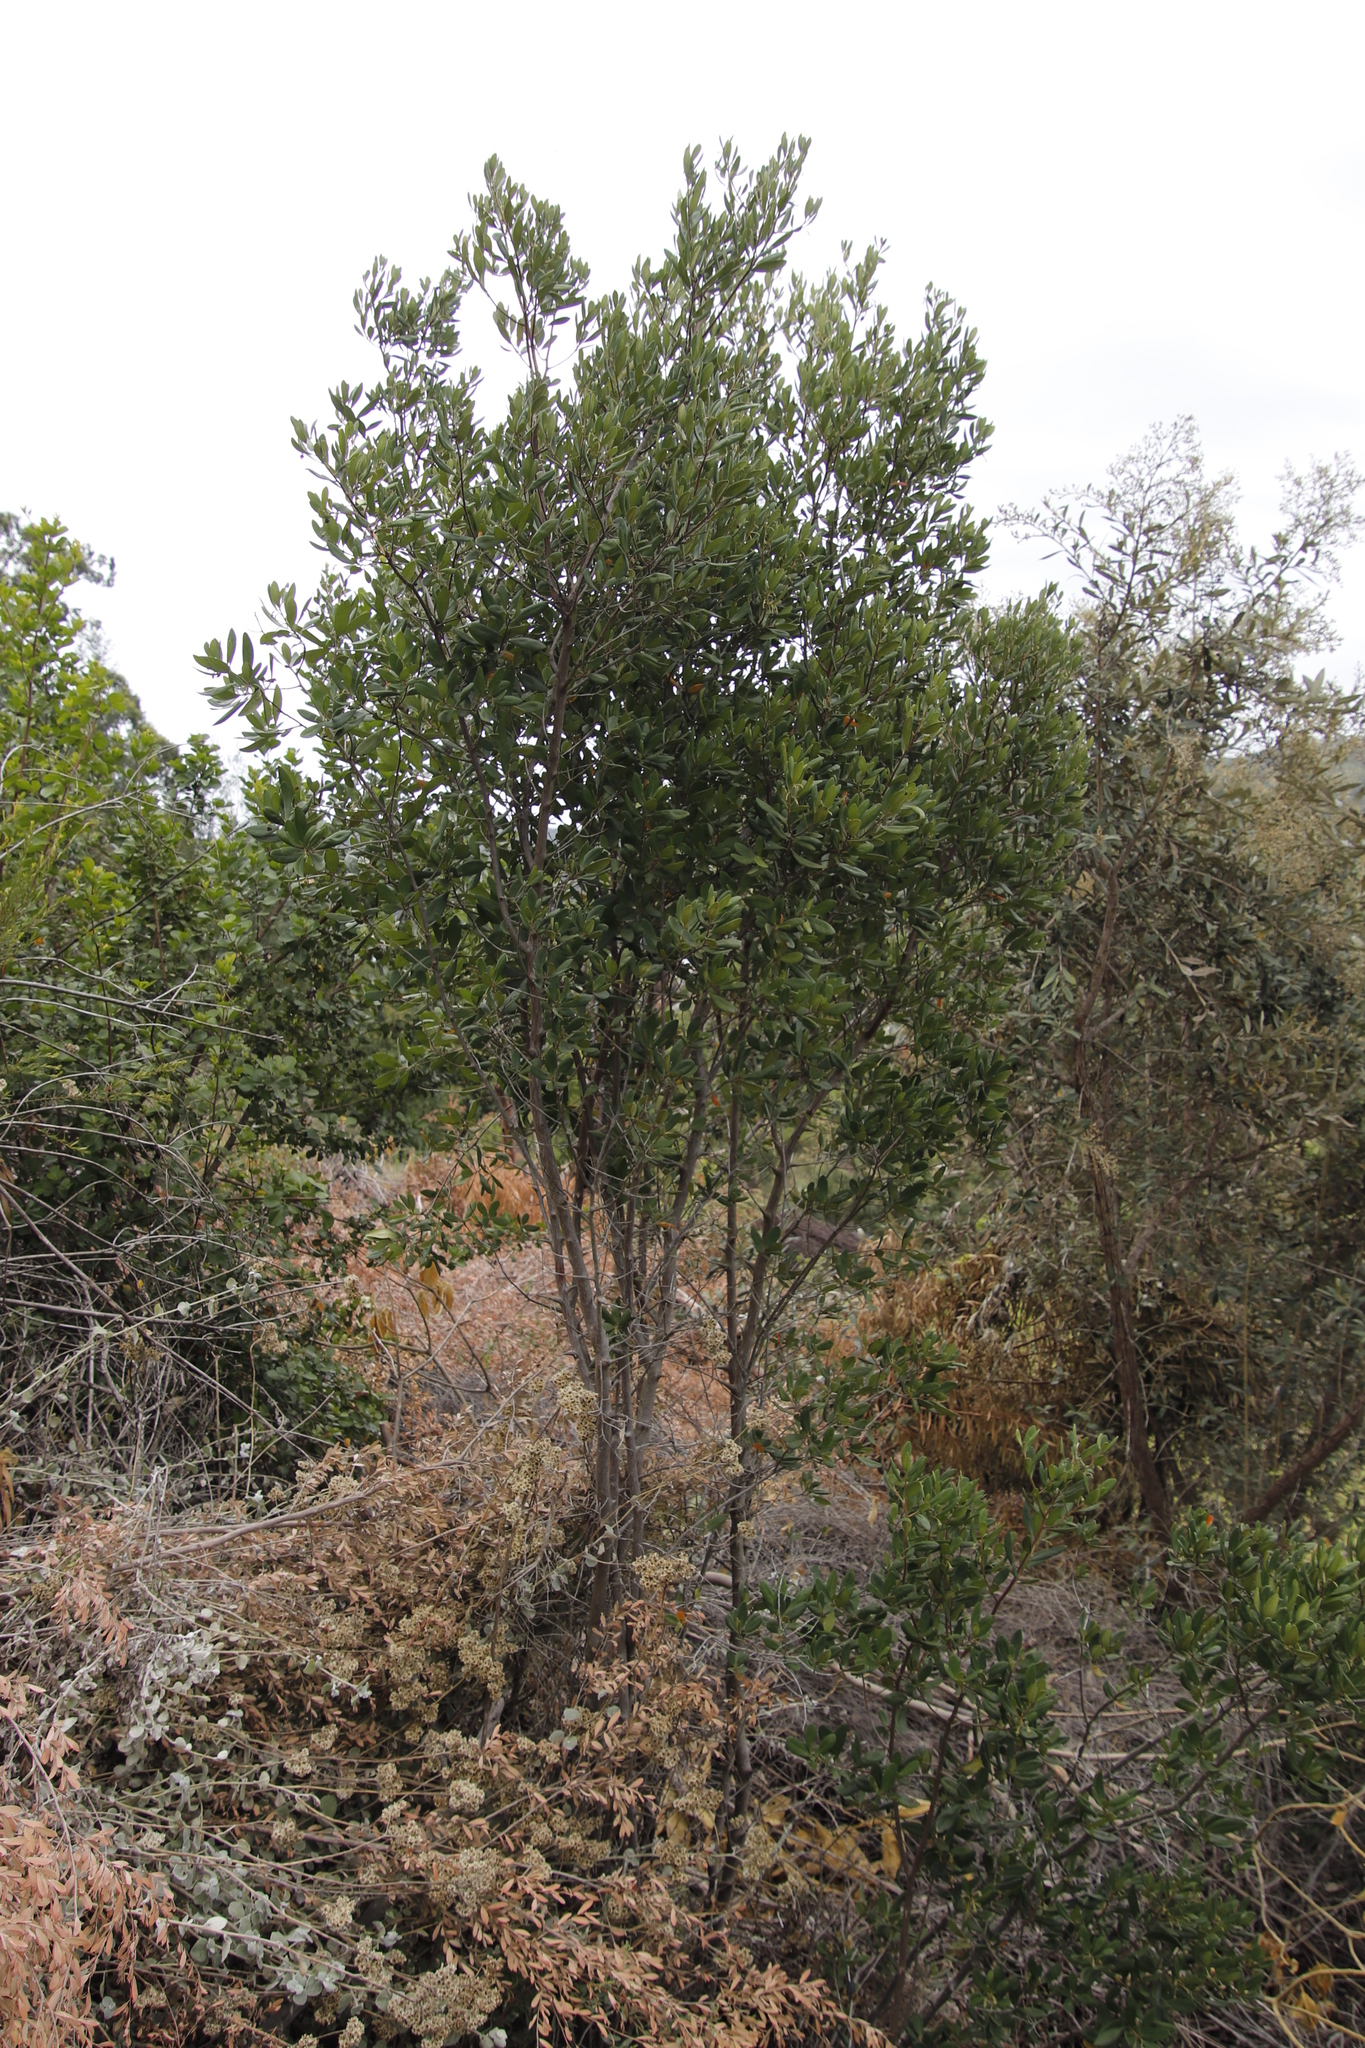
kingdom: Plantae
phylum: Tracheophyta
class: Magnoliopsida
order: Ericales
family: Ebenaceae
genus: Diospyros
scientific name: Diospyros dichrophylla
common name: Common star-apple
